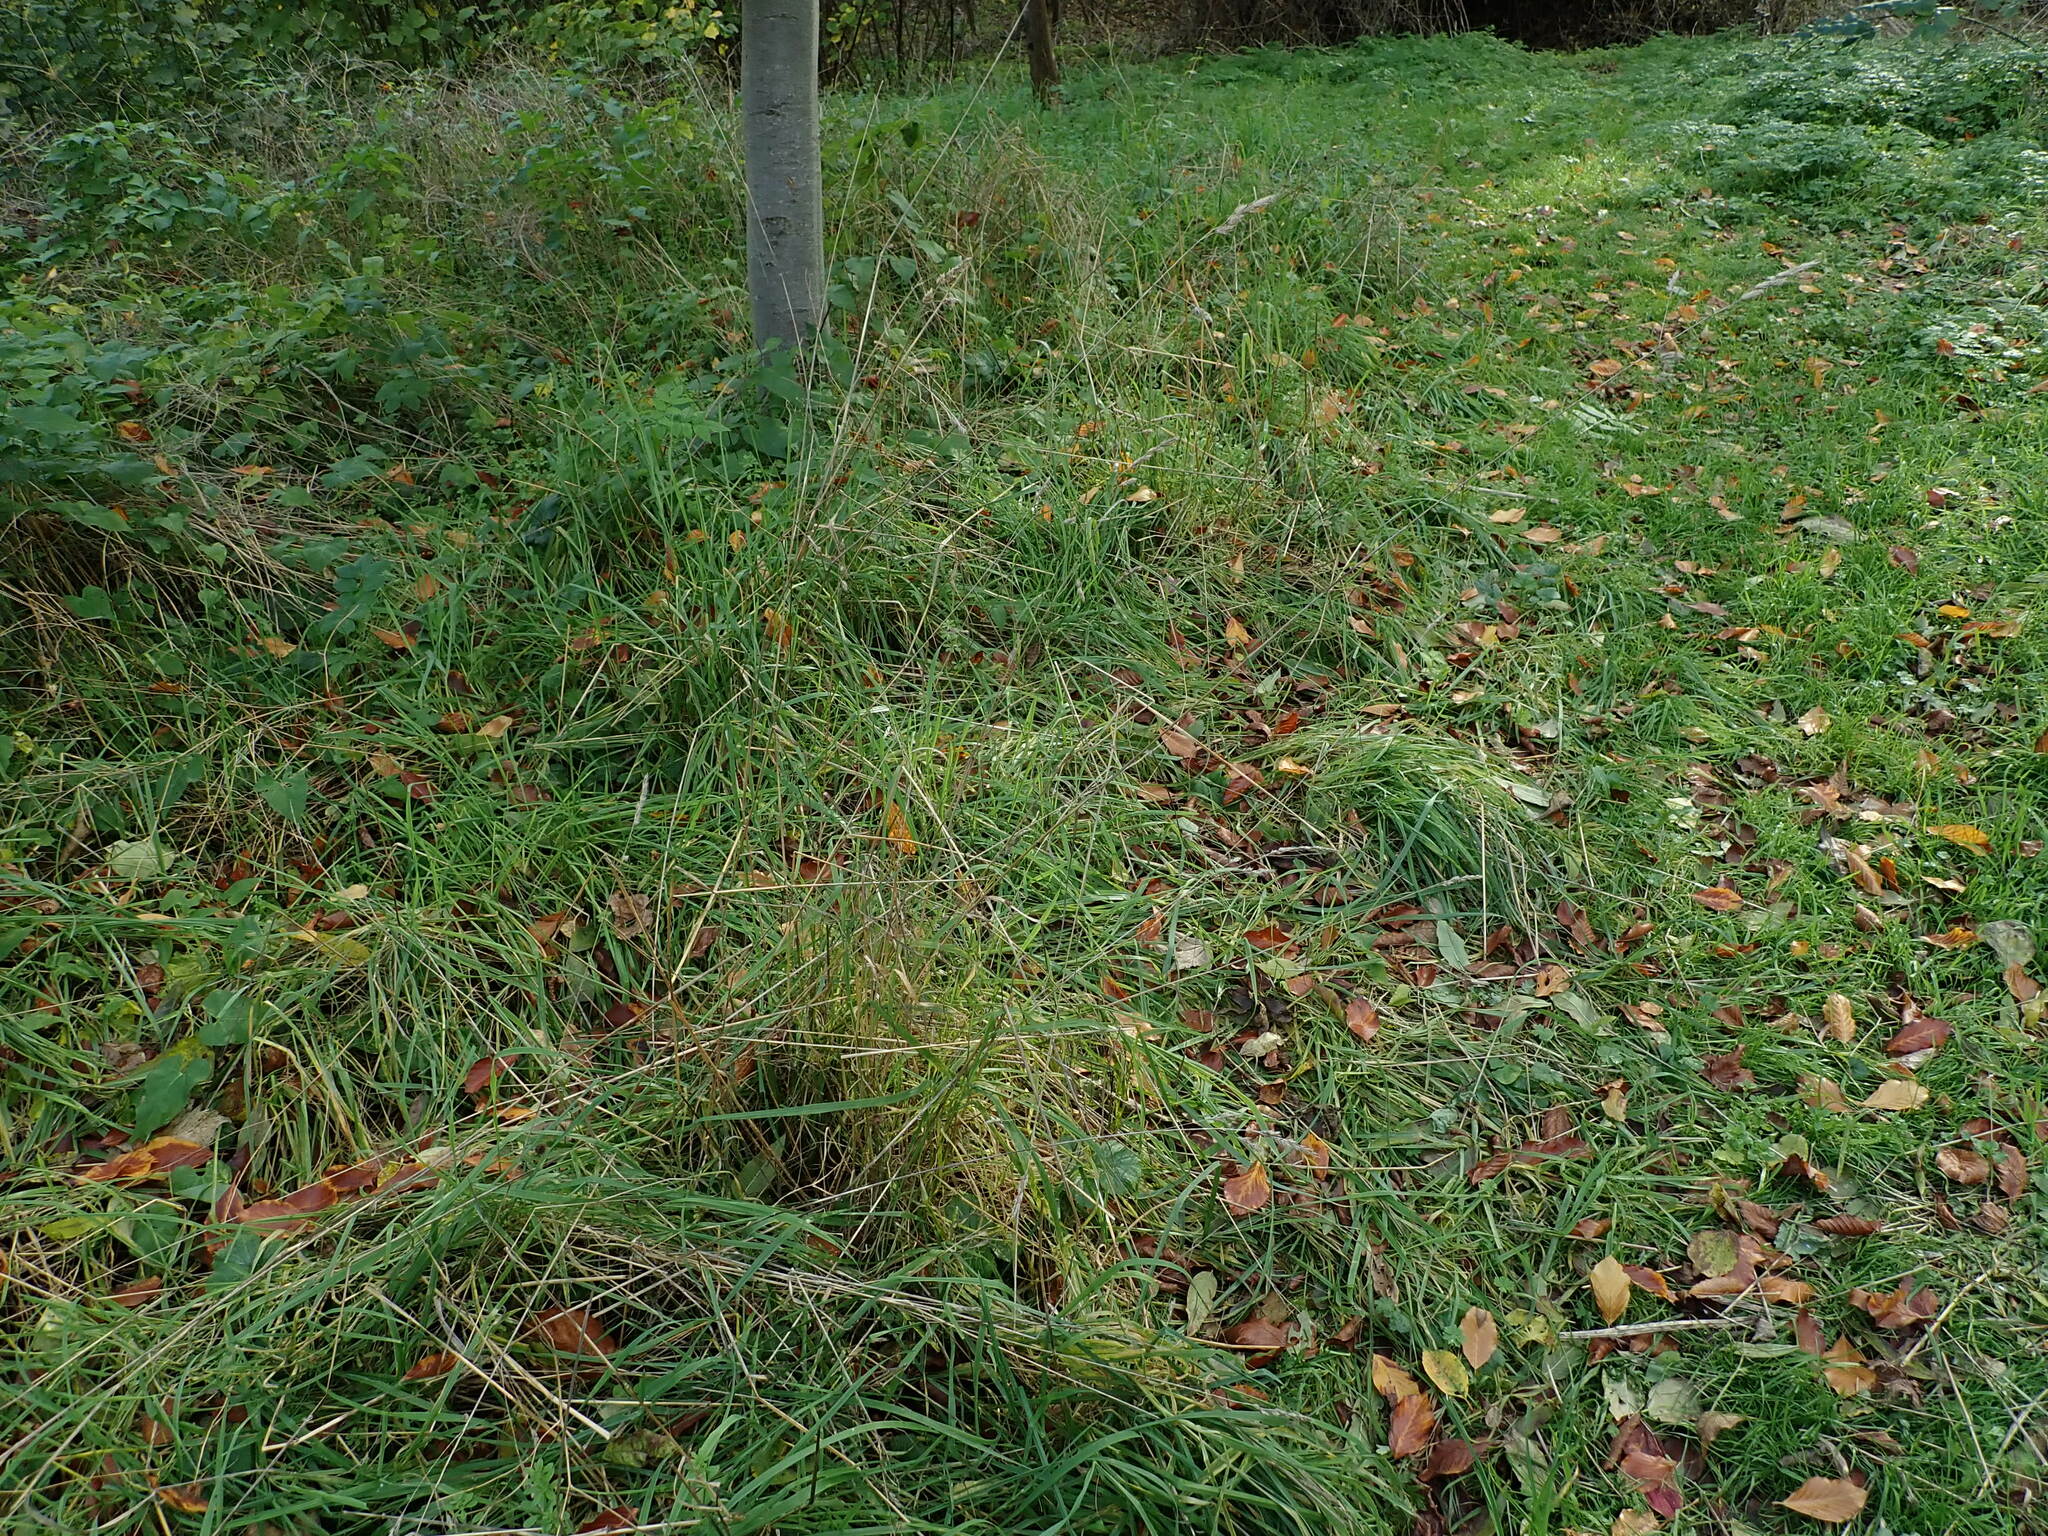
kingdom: Plantae
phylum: Tracheophyta
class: Liliopsida
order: Poales
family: Poaceae
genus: Dactylis
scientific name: Dactylis glomerata
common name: Orchardgrass
